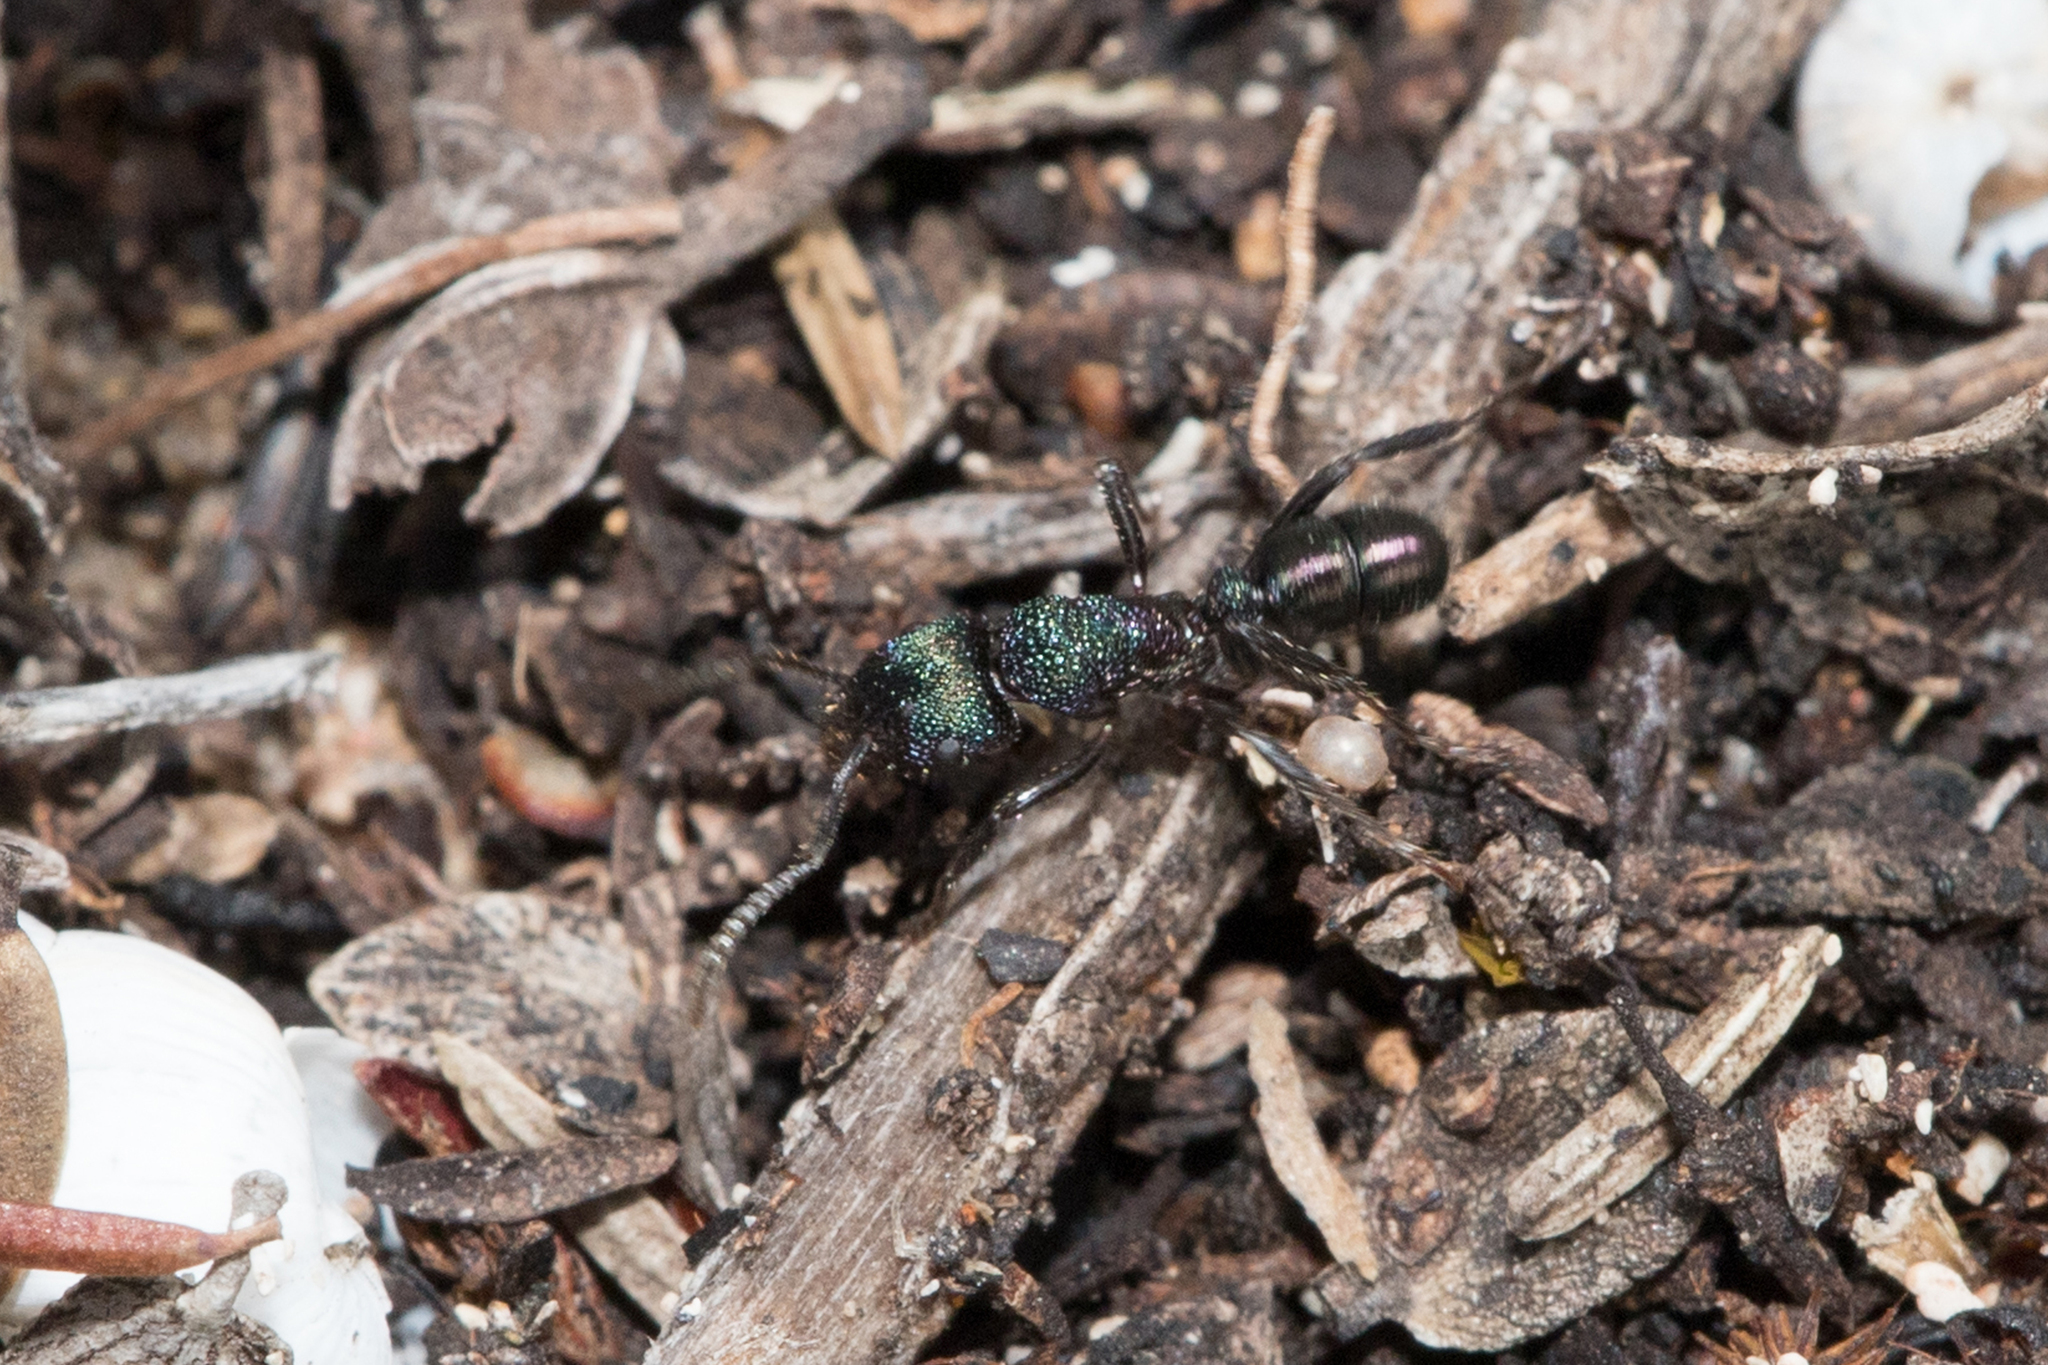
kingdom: Animalia
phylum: Arthropoda
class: Insecta
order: Hymenoptera
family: Formicidae
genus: Rhytidoponera
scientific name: Rhytidoponera metallica
